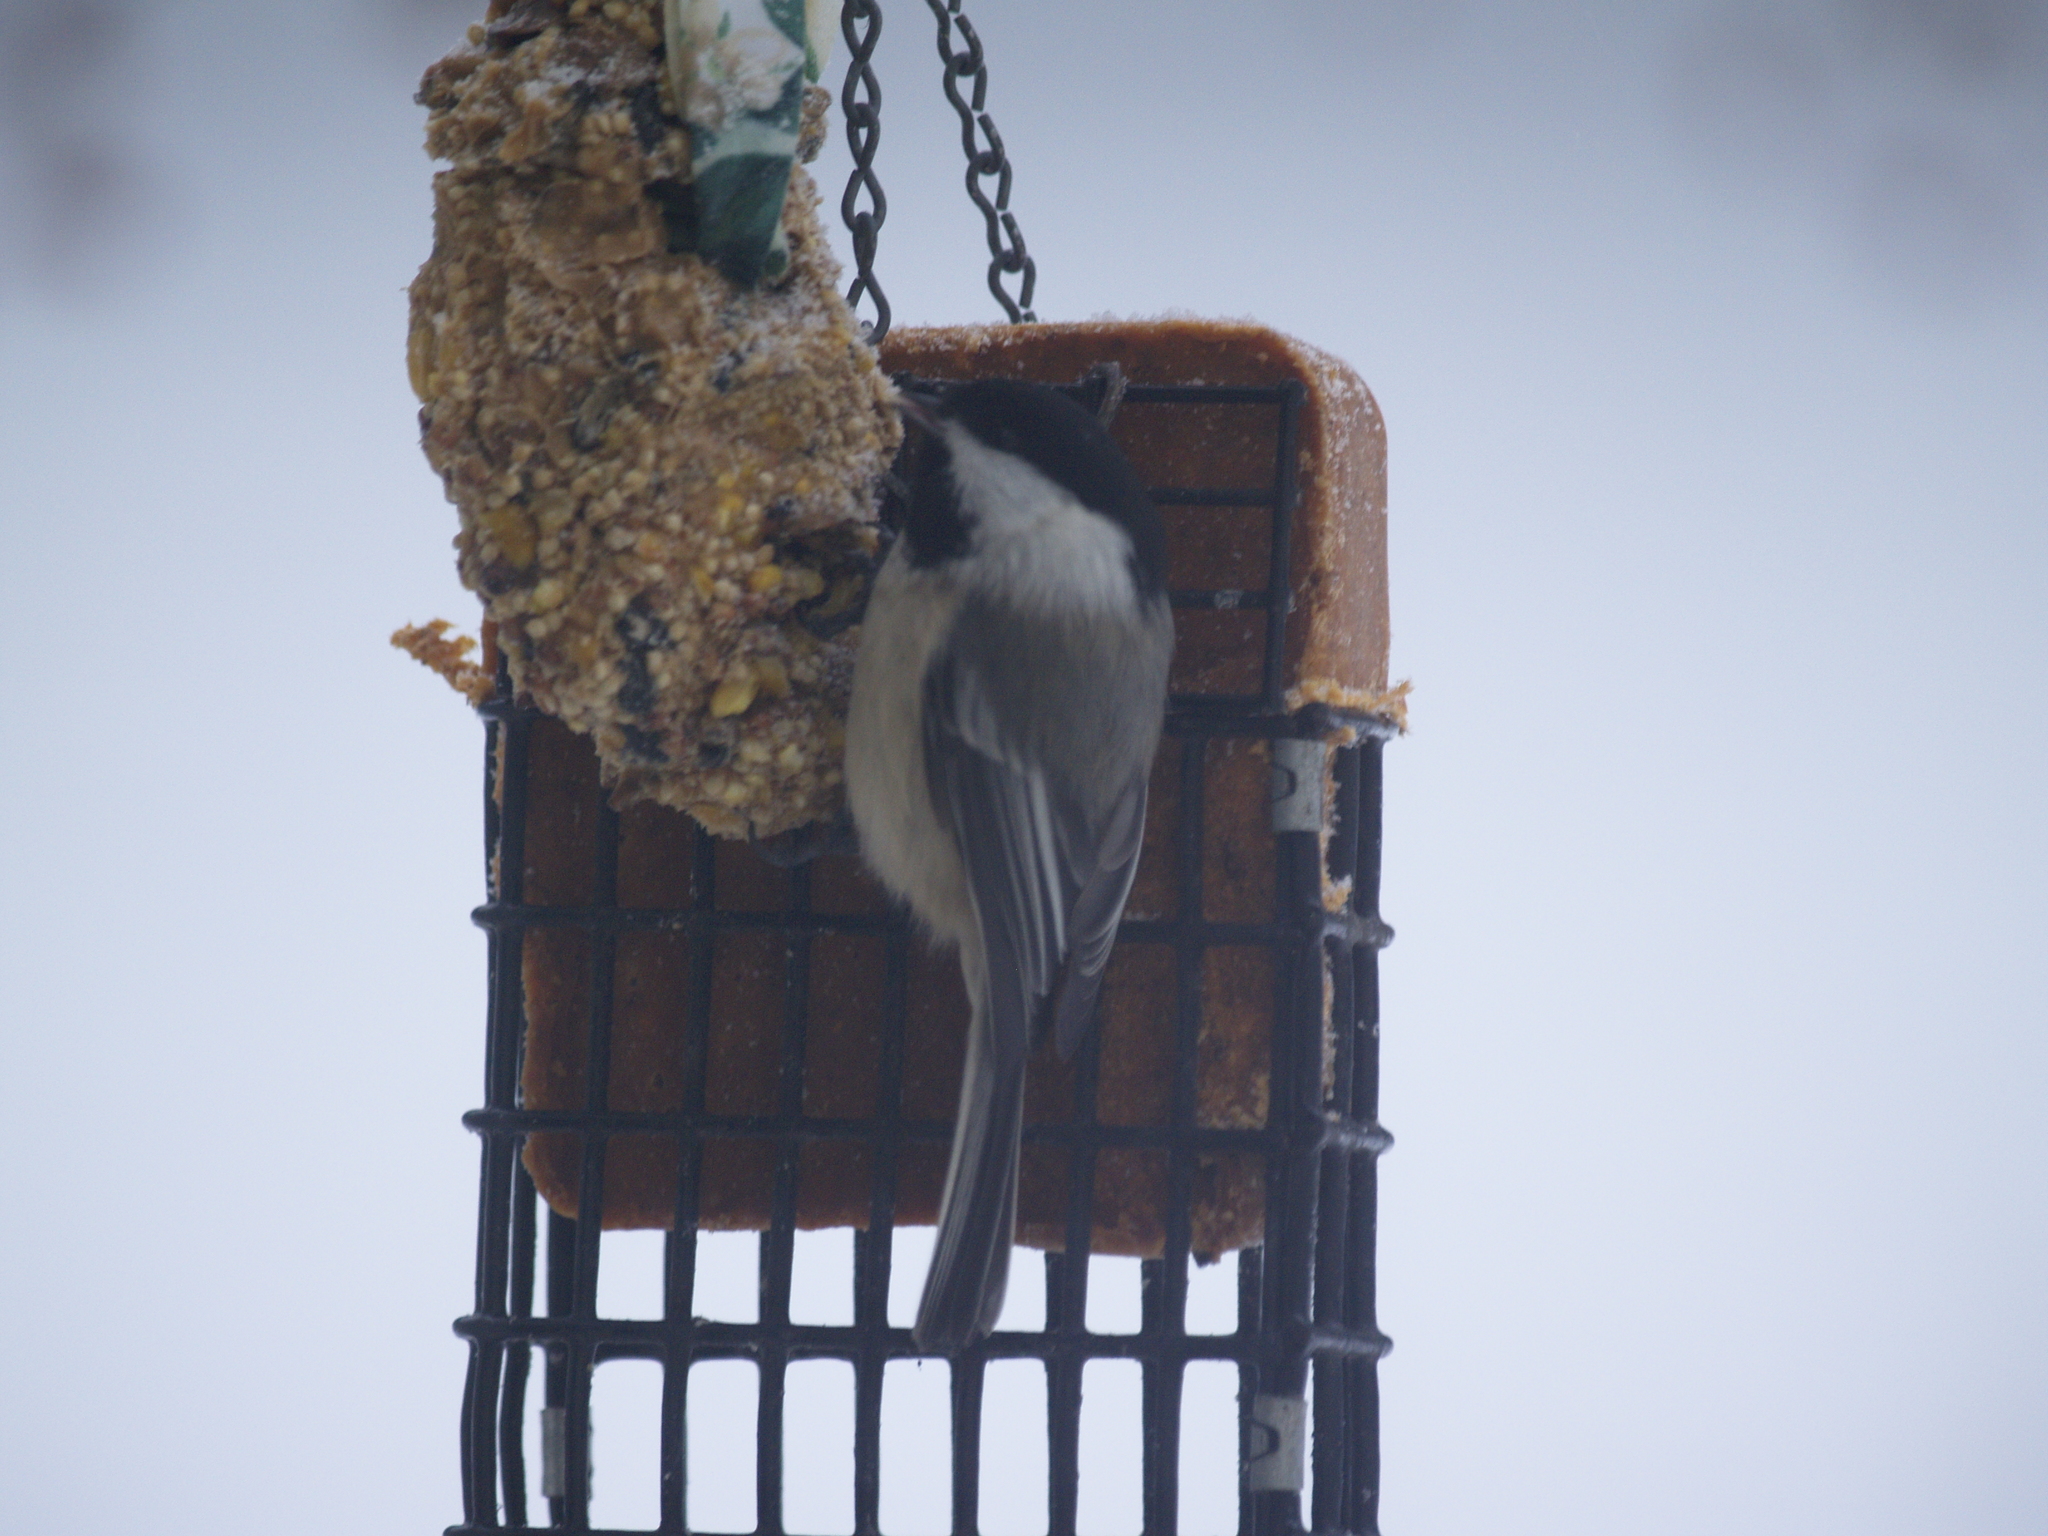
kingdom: Animalia
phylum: Chordata
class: Aves
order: Passeriformes
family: Paridae
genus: Poecile
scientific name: Poecile atricapillus
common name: Black-capped chickadee
